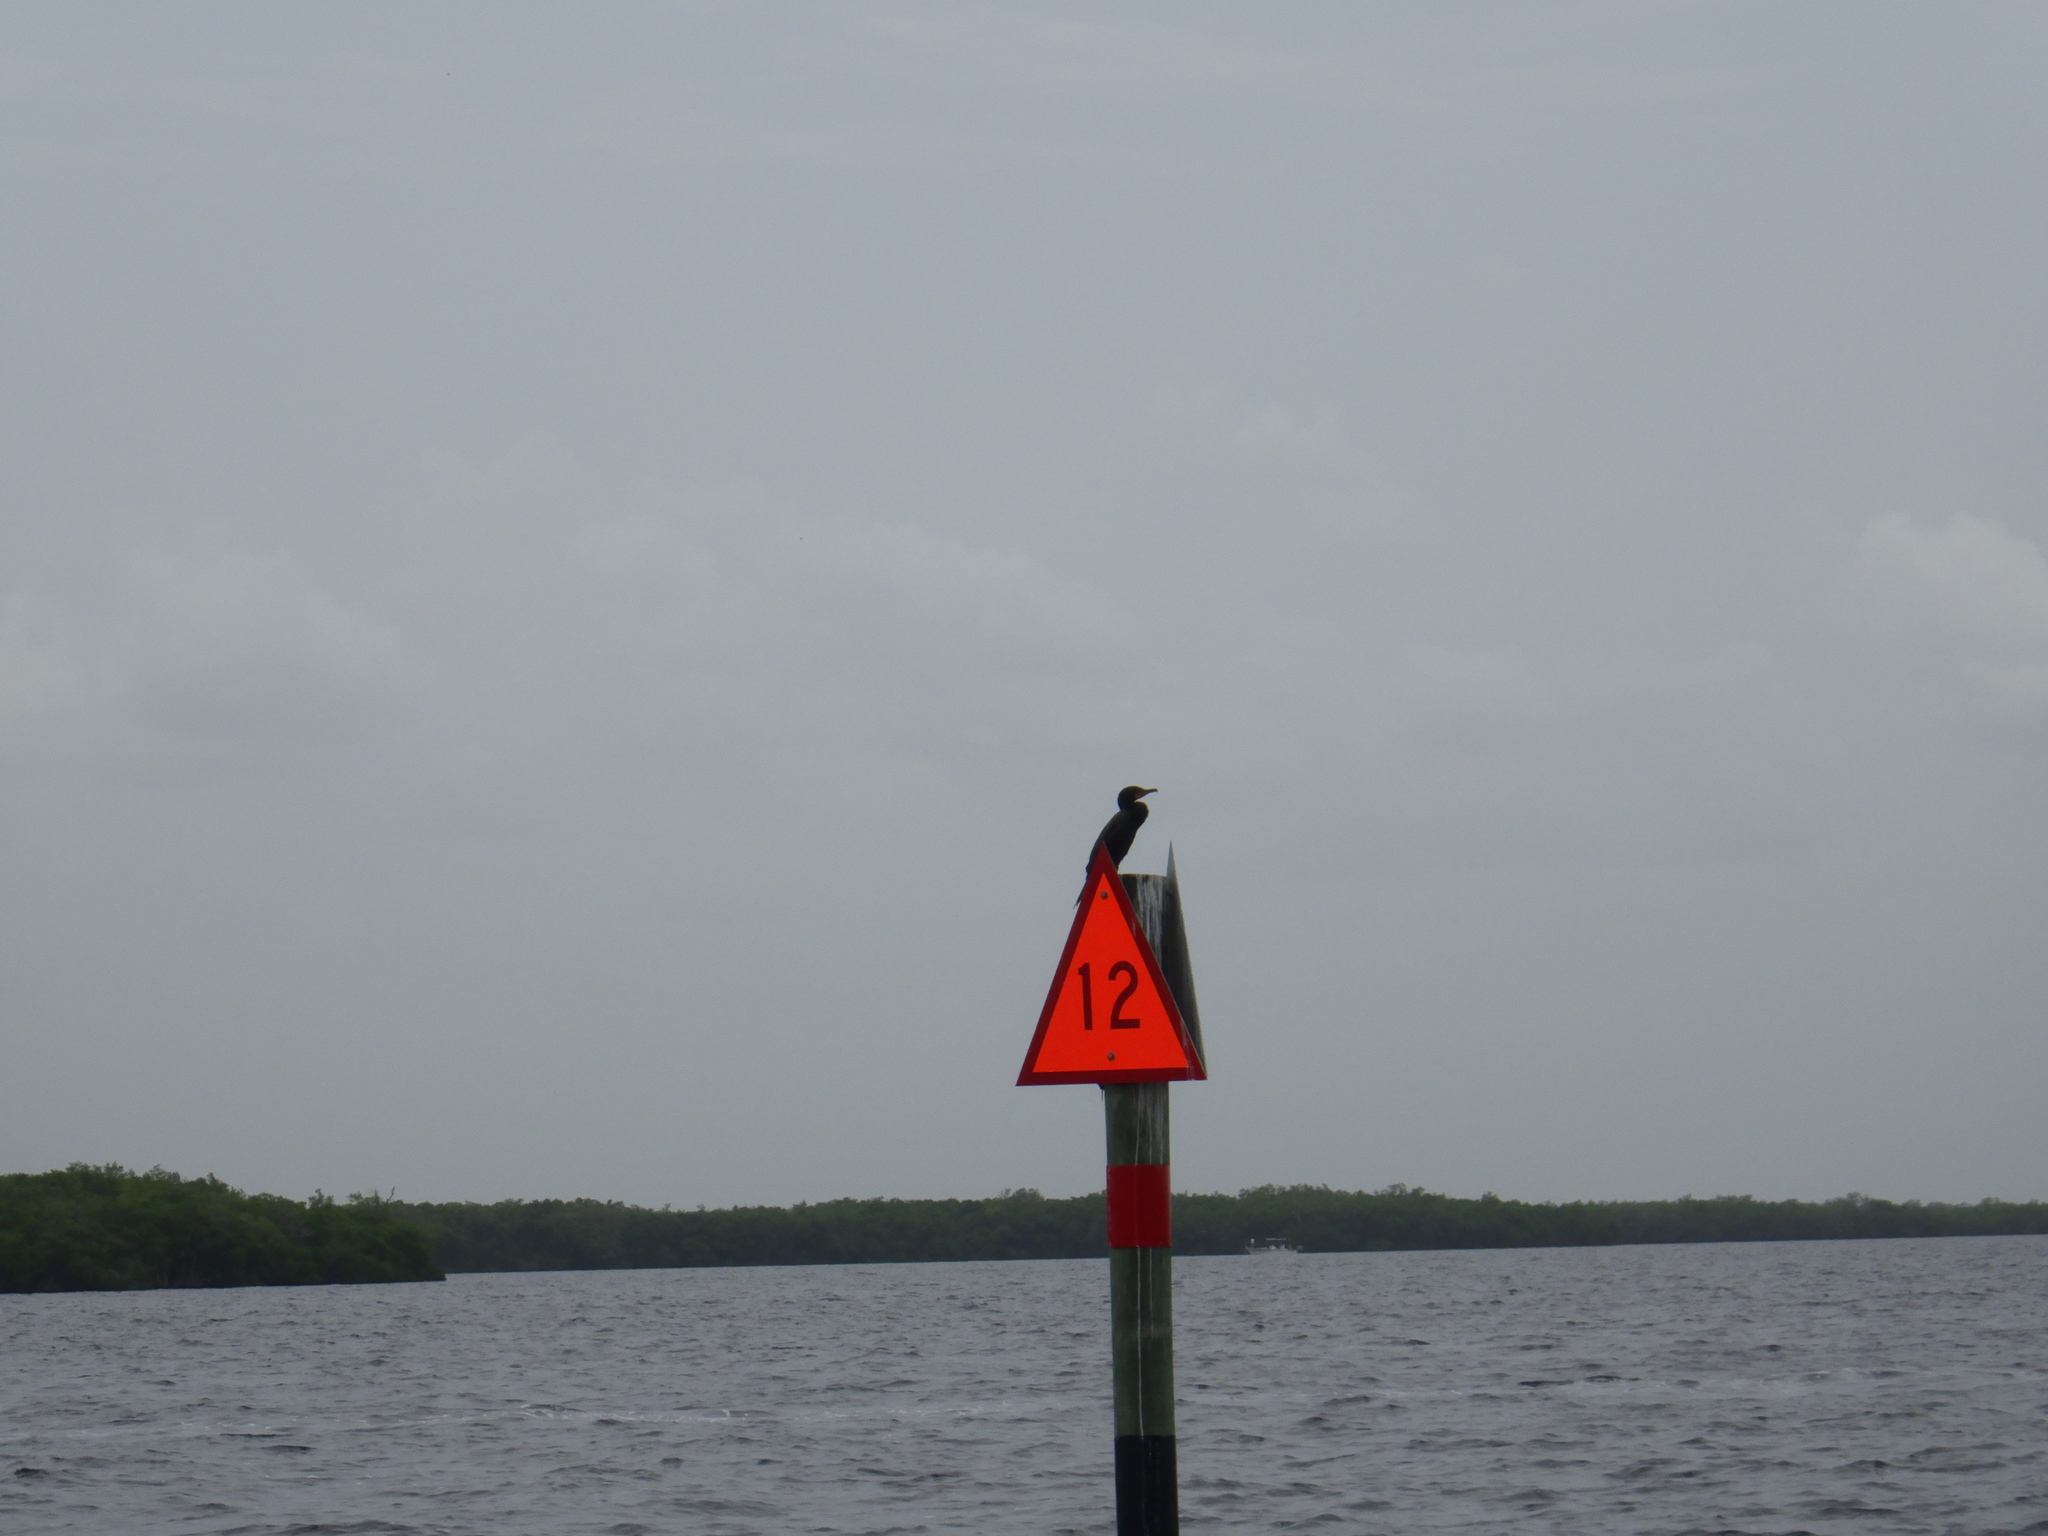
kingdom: Animalia
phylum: Chordata
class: Aves
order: Suliformes
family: Phalacrocoracidae
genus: Phalacrocorax
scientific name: Phalacrocorax auritus
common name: Double-crested cormorant
